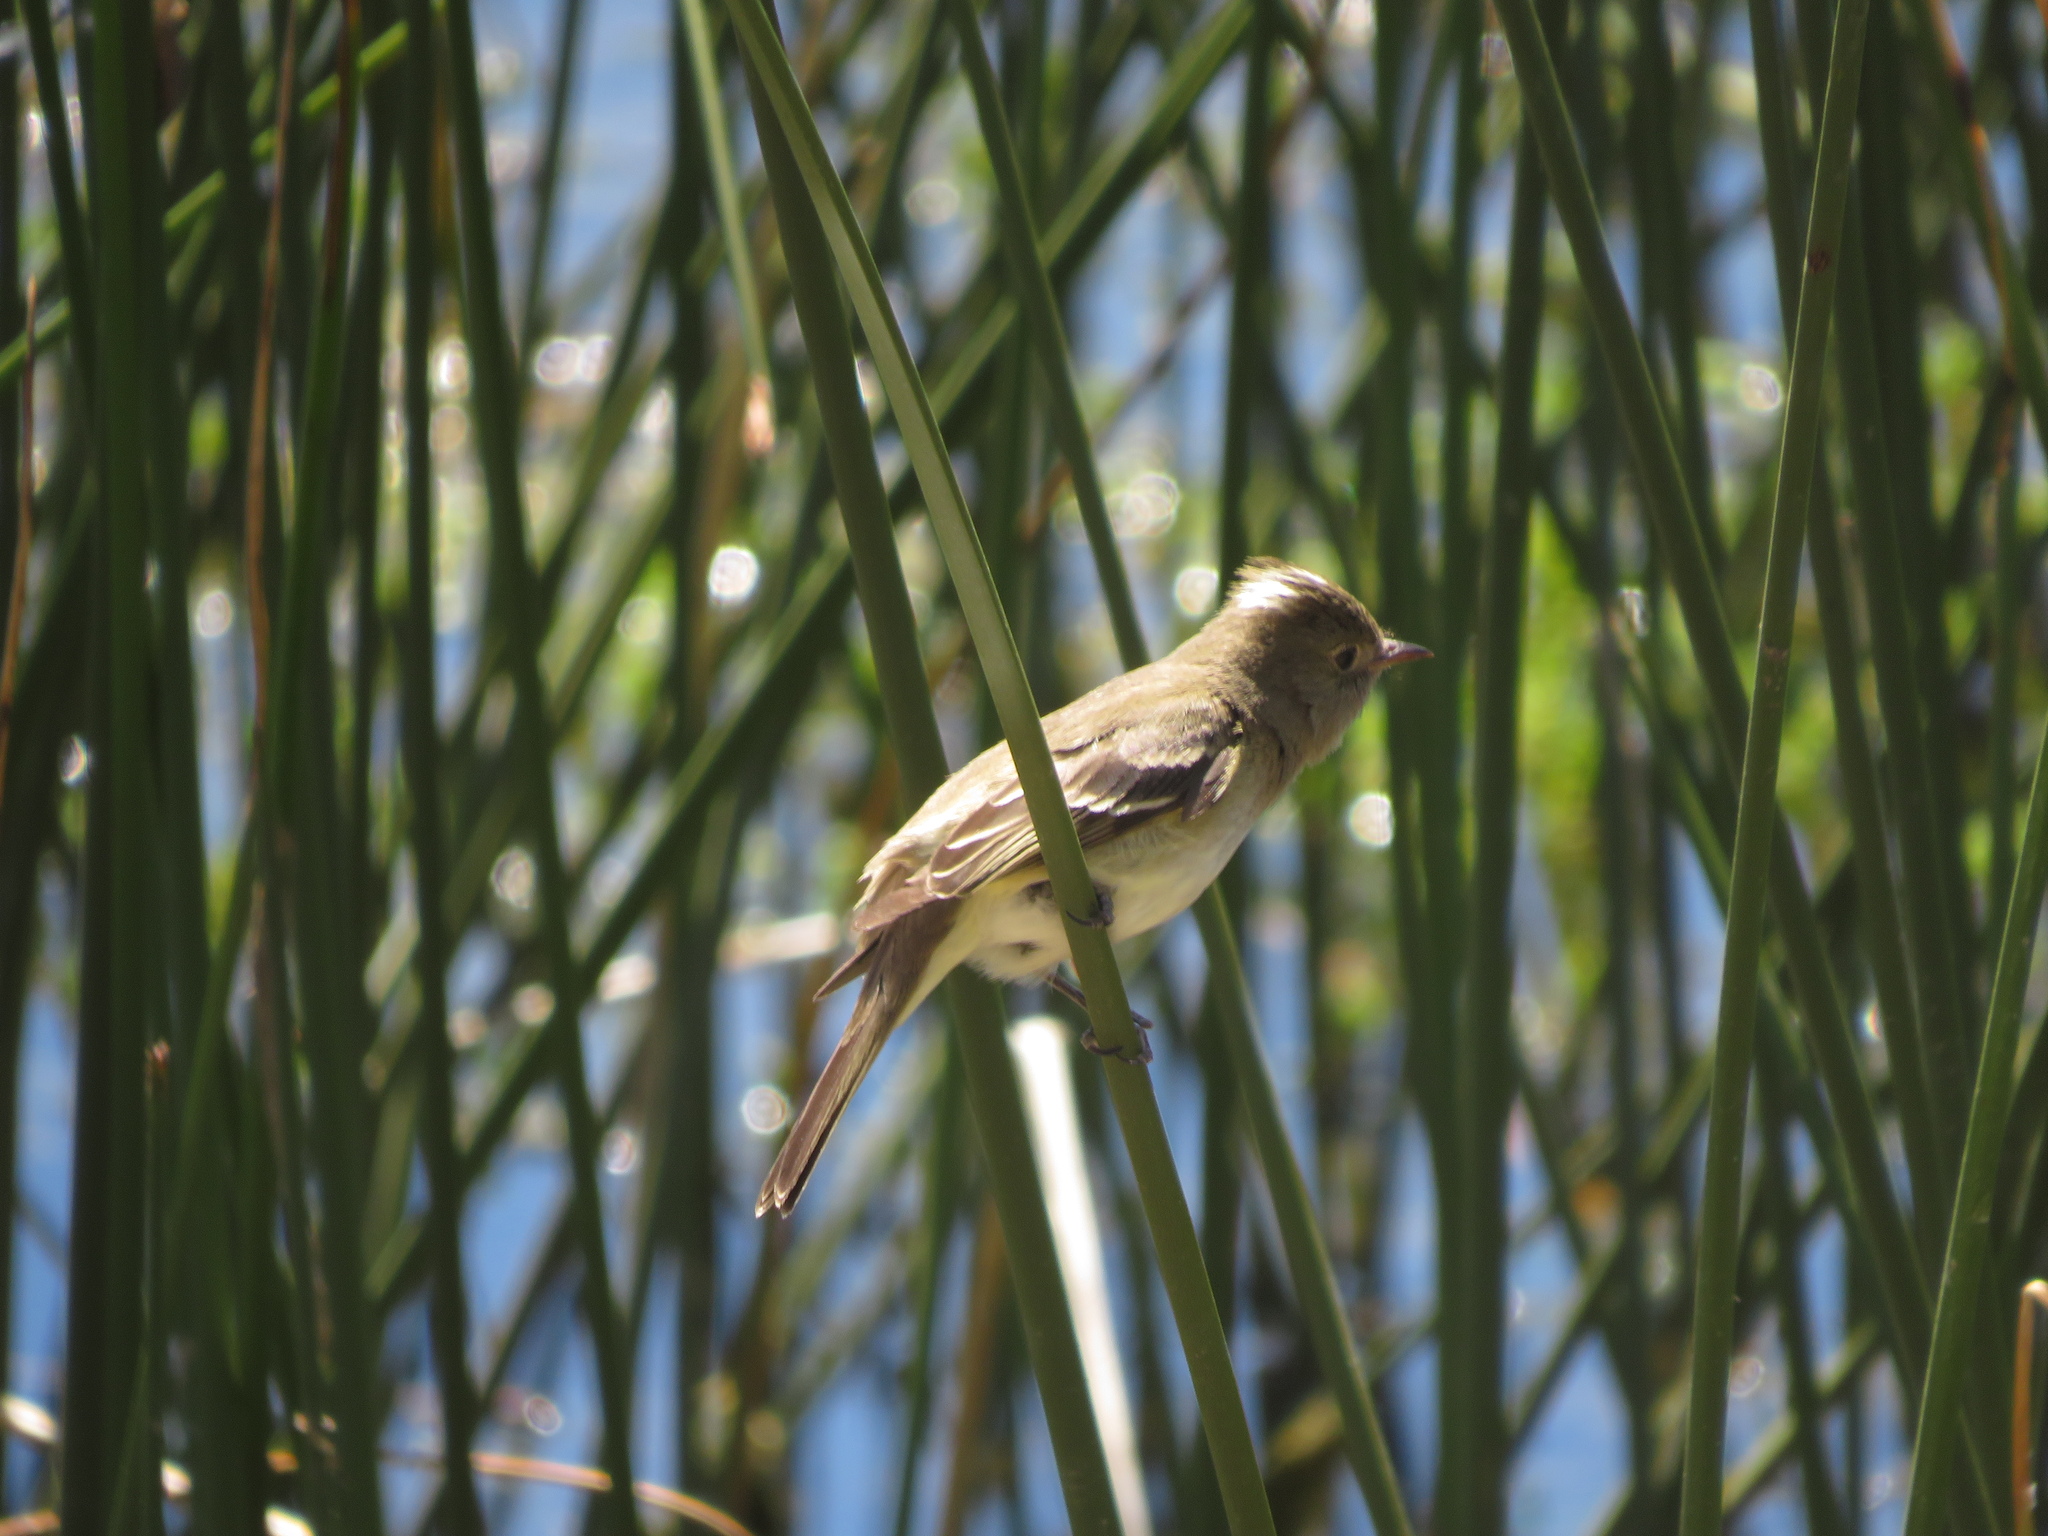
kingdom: Animalia
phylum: Chordata
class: Aves
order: Passeriformes
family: Tyrannidae
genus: Elaenia
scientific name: Elaenia albiceps
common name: White-crested elaenia
